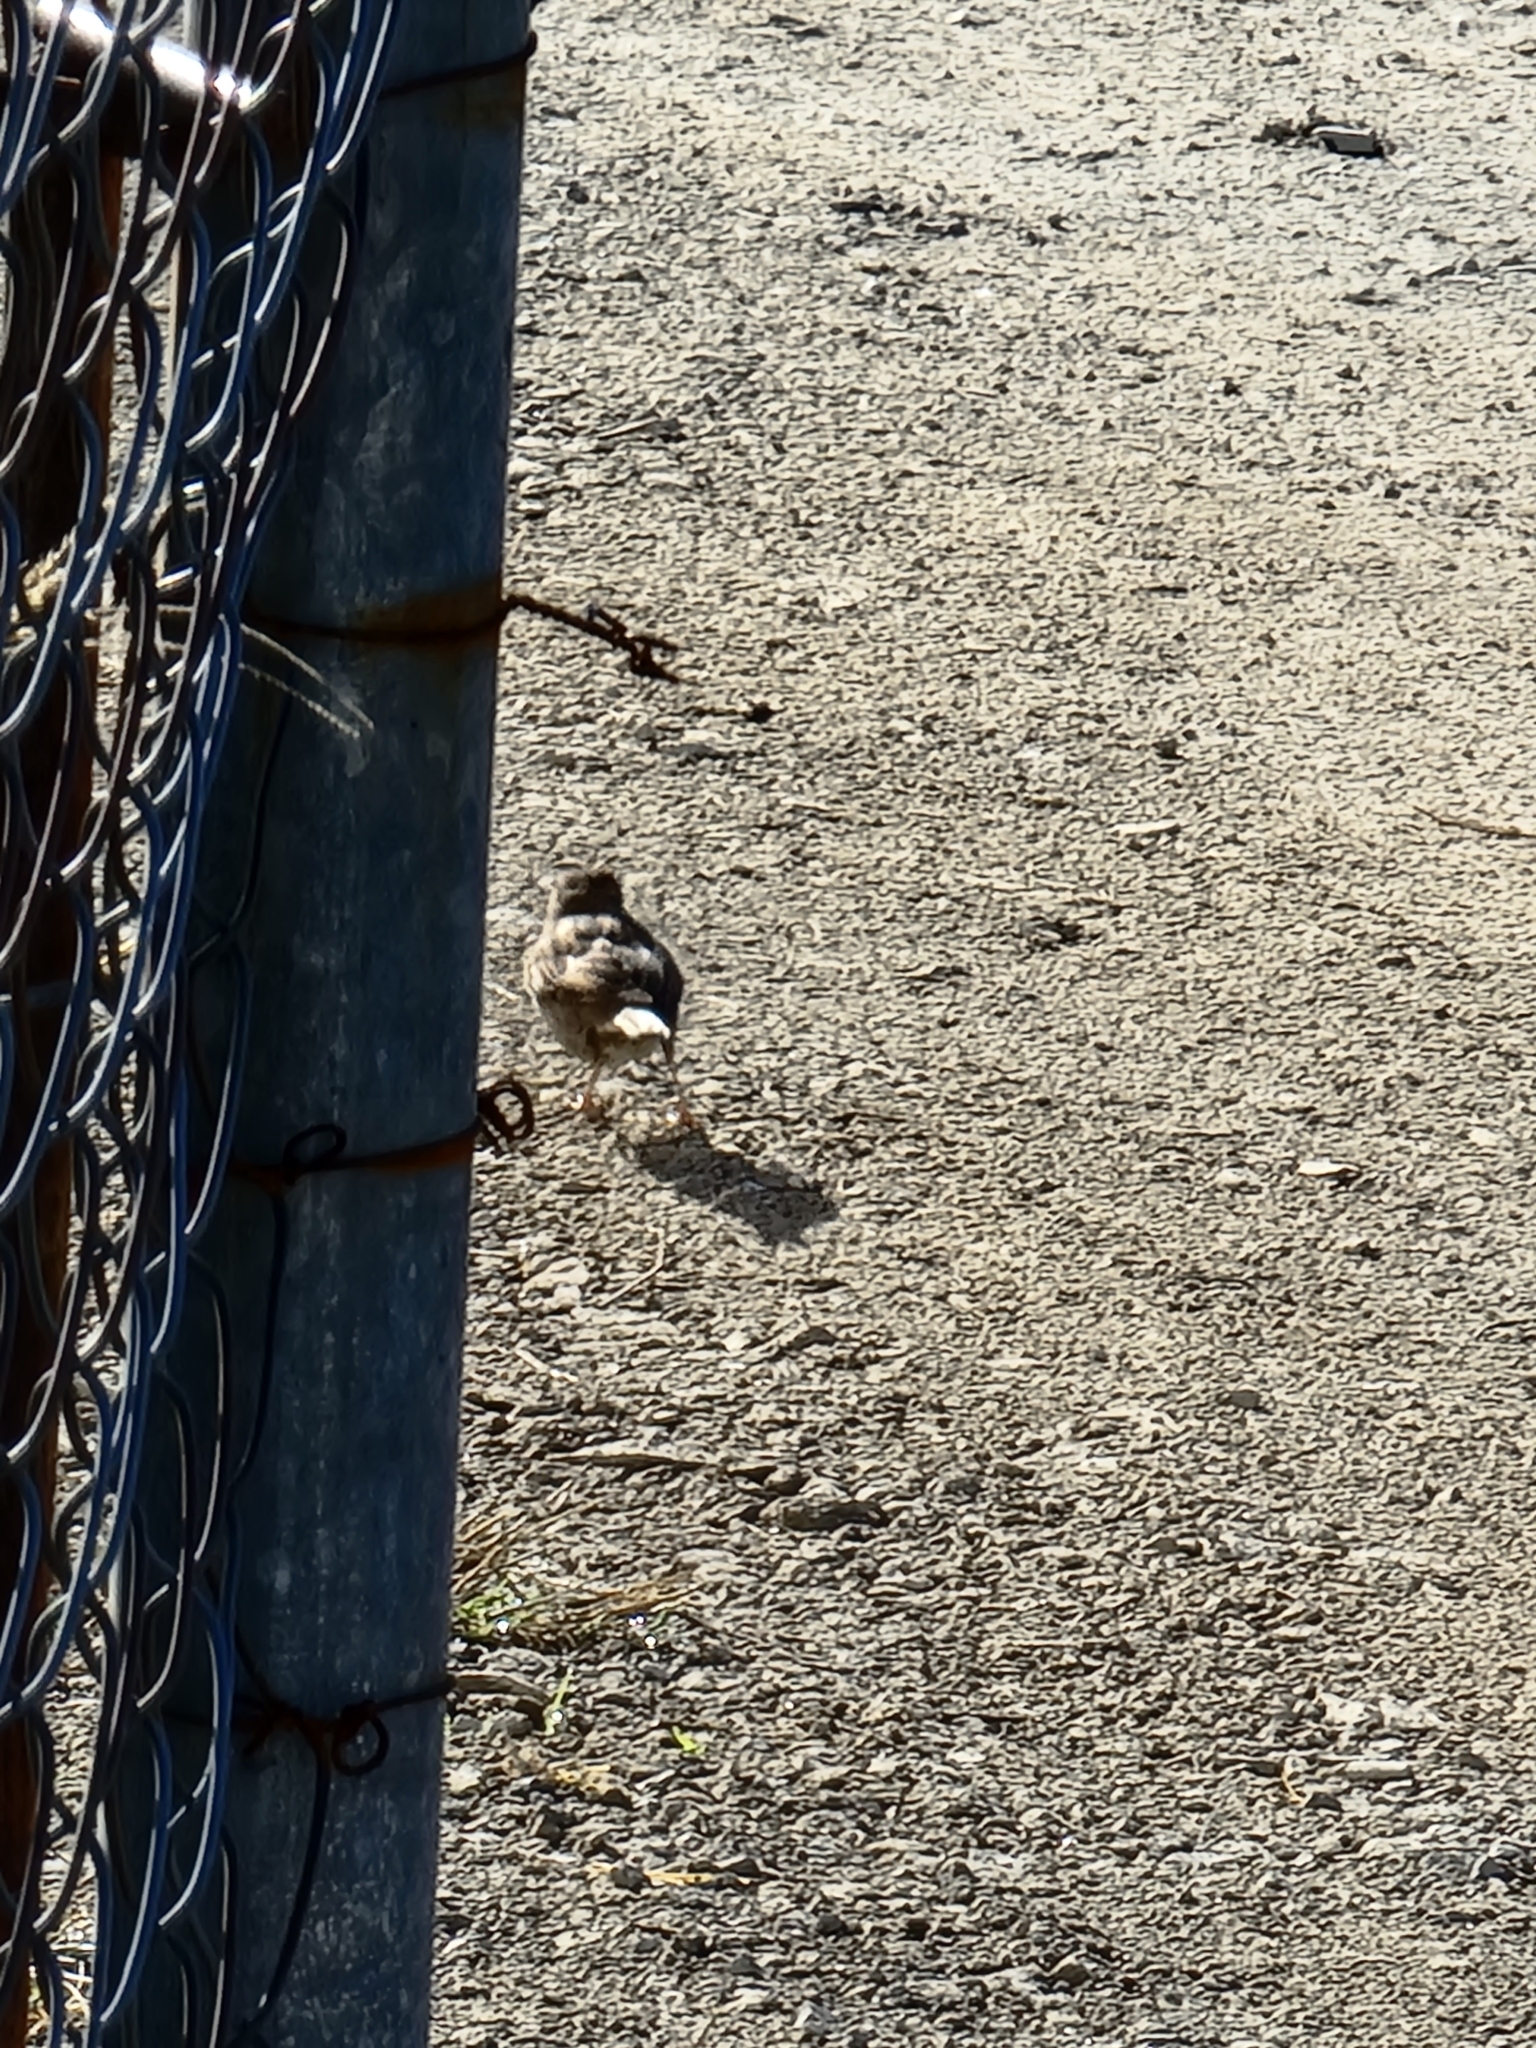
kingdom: Animalia
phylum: Chordata
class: Aves
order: Passeriformes
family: Passeridae
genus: Passer
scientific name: Passer domesticus
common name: House sparrow
